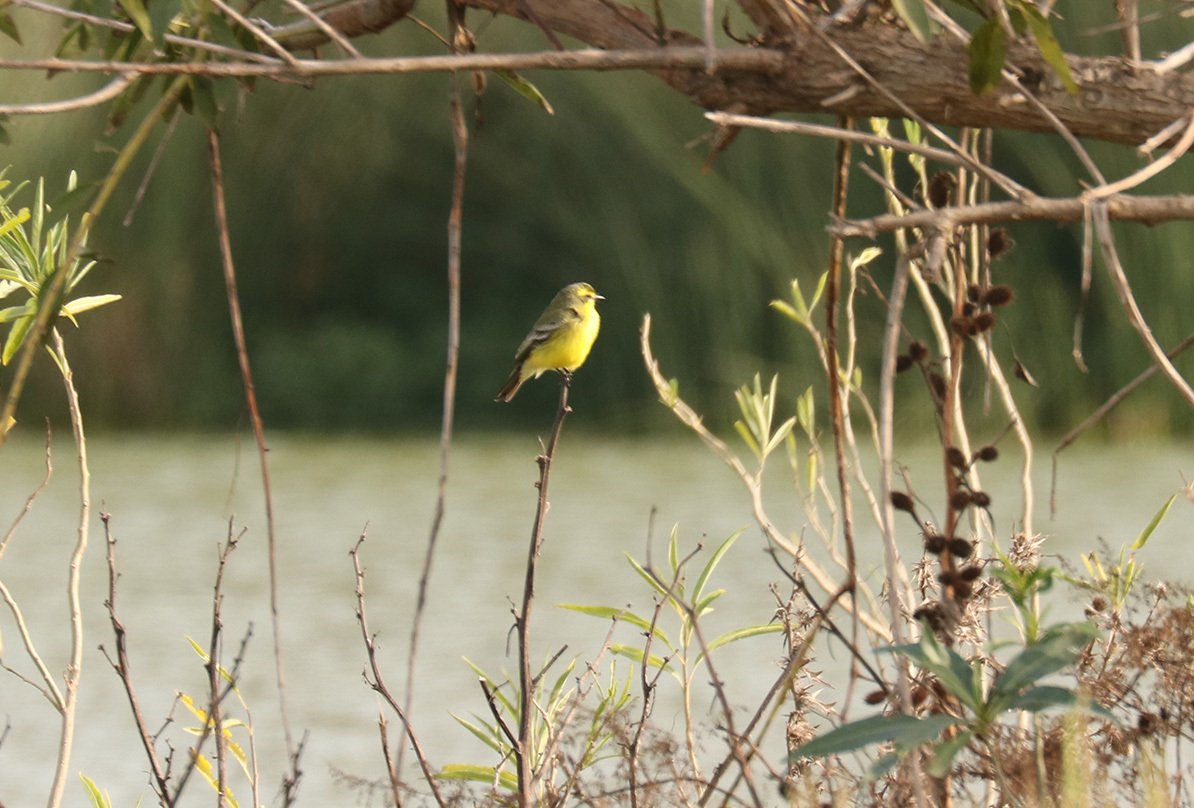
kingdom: Animalia
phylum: Chordata
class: Aves
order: Passeriformes
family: Tyrannidae
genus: Satrapa
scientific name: Satrapa icterophrys
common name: Yellow-browed tyrant
